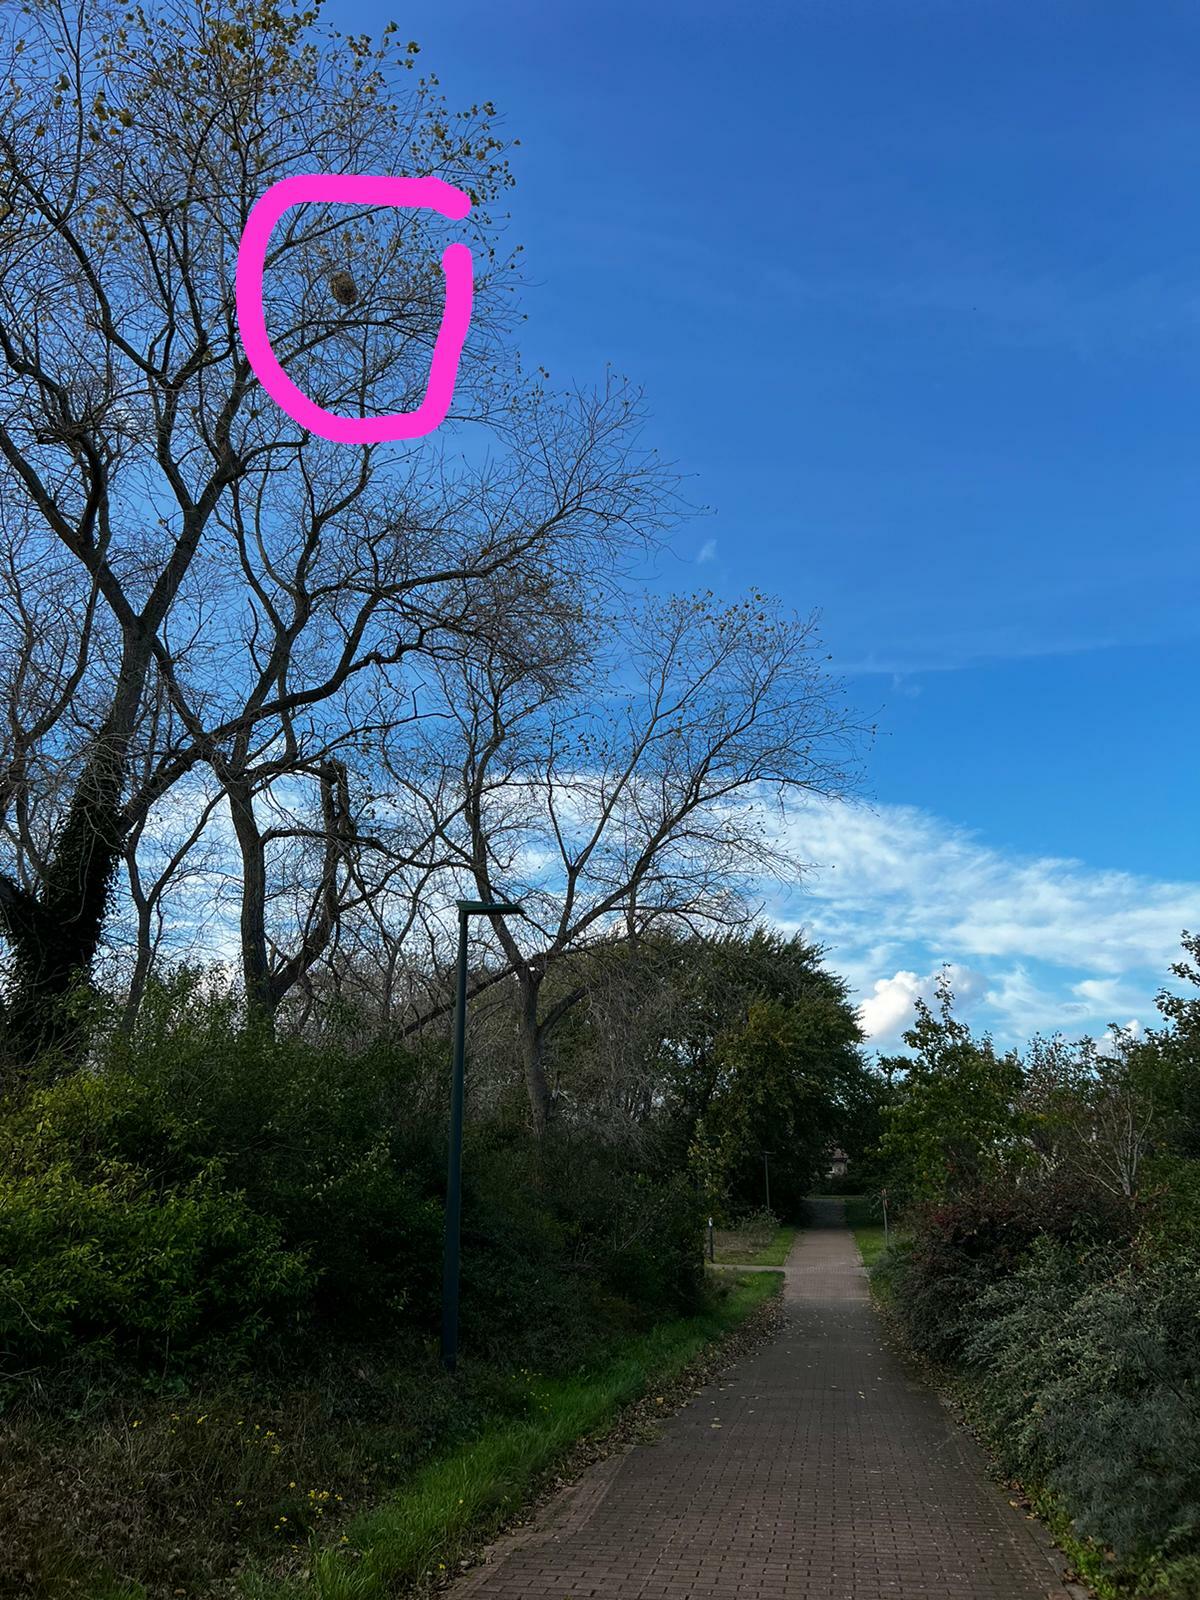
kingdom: Animalia
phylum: Arthropoda
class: Insecta
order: Hymenoptera
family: Vespidae
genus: Vespa
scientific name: Vespa velutina
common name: Asian hornet
